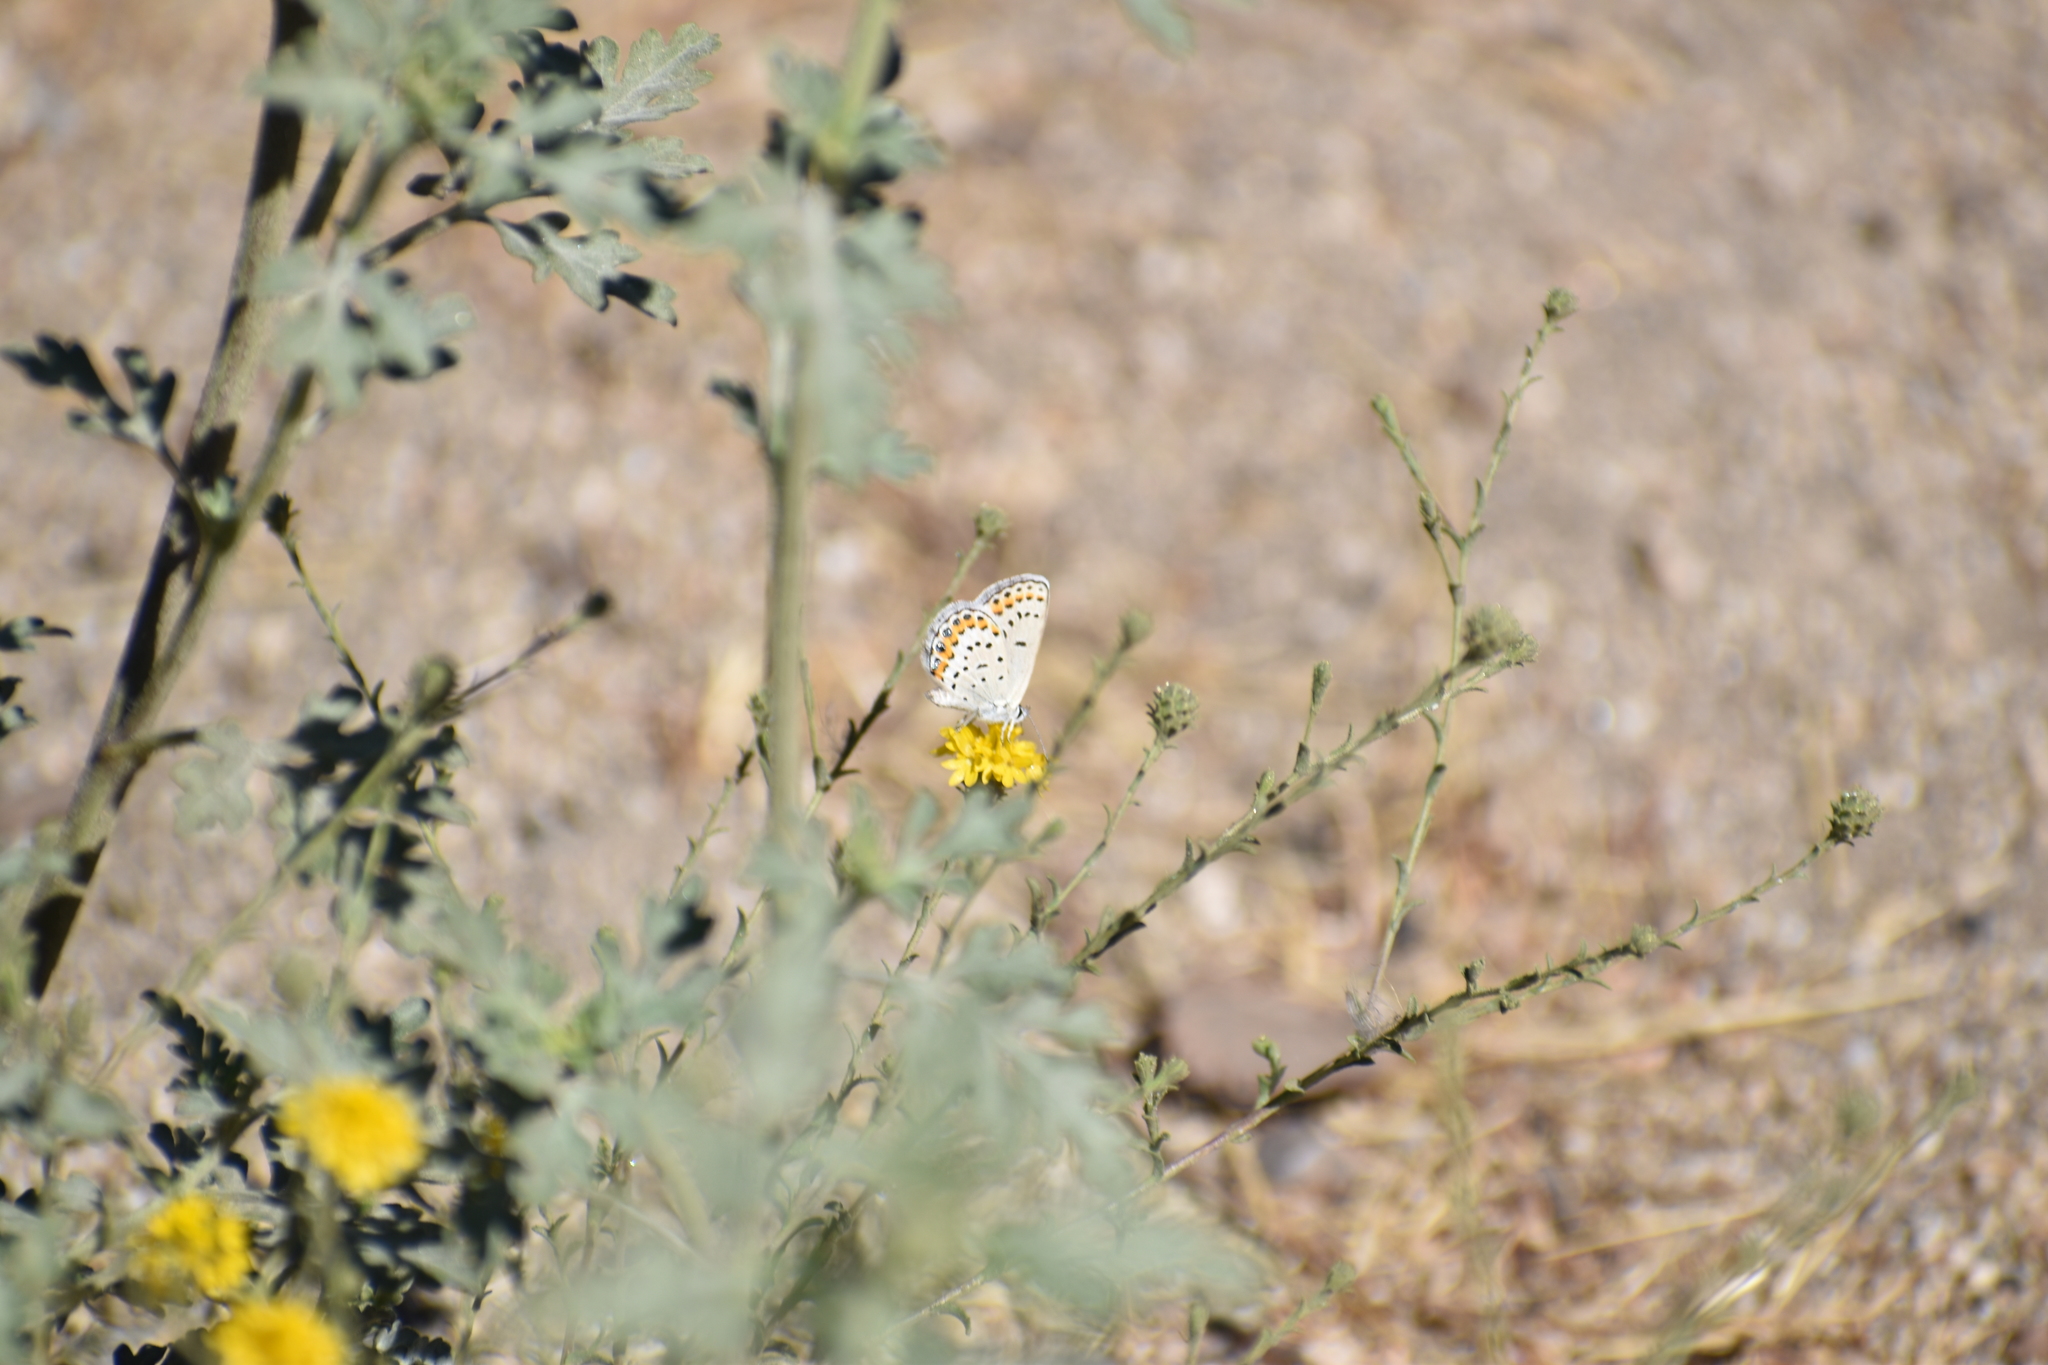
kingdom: Animalia
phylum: Arthropoda
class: Insecta
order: Lepidoptera
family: Lycaenidae
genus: Lycaeides
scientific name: Lycaeides melissa
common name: Melissa blue
